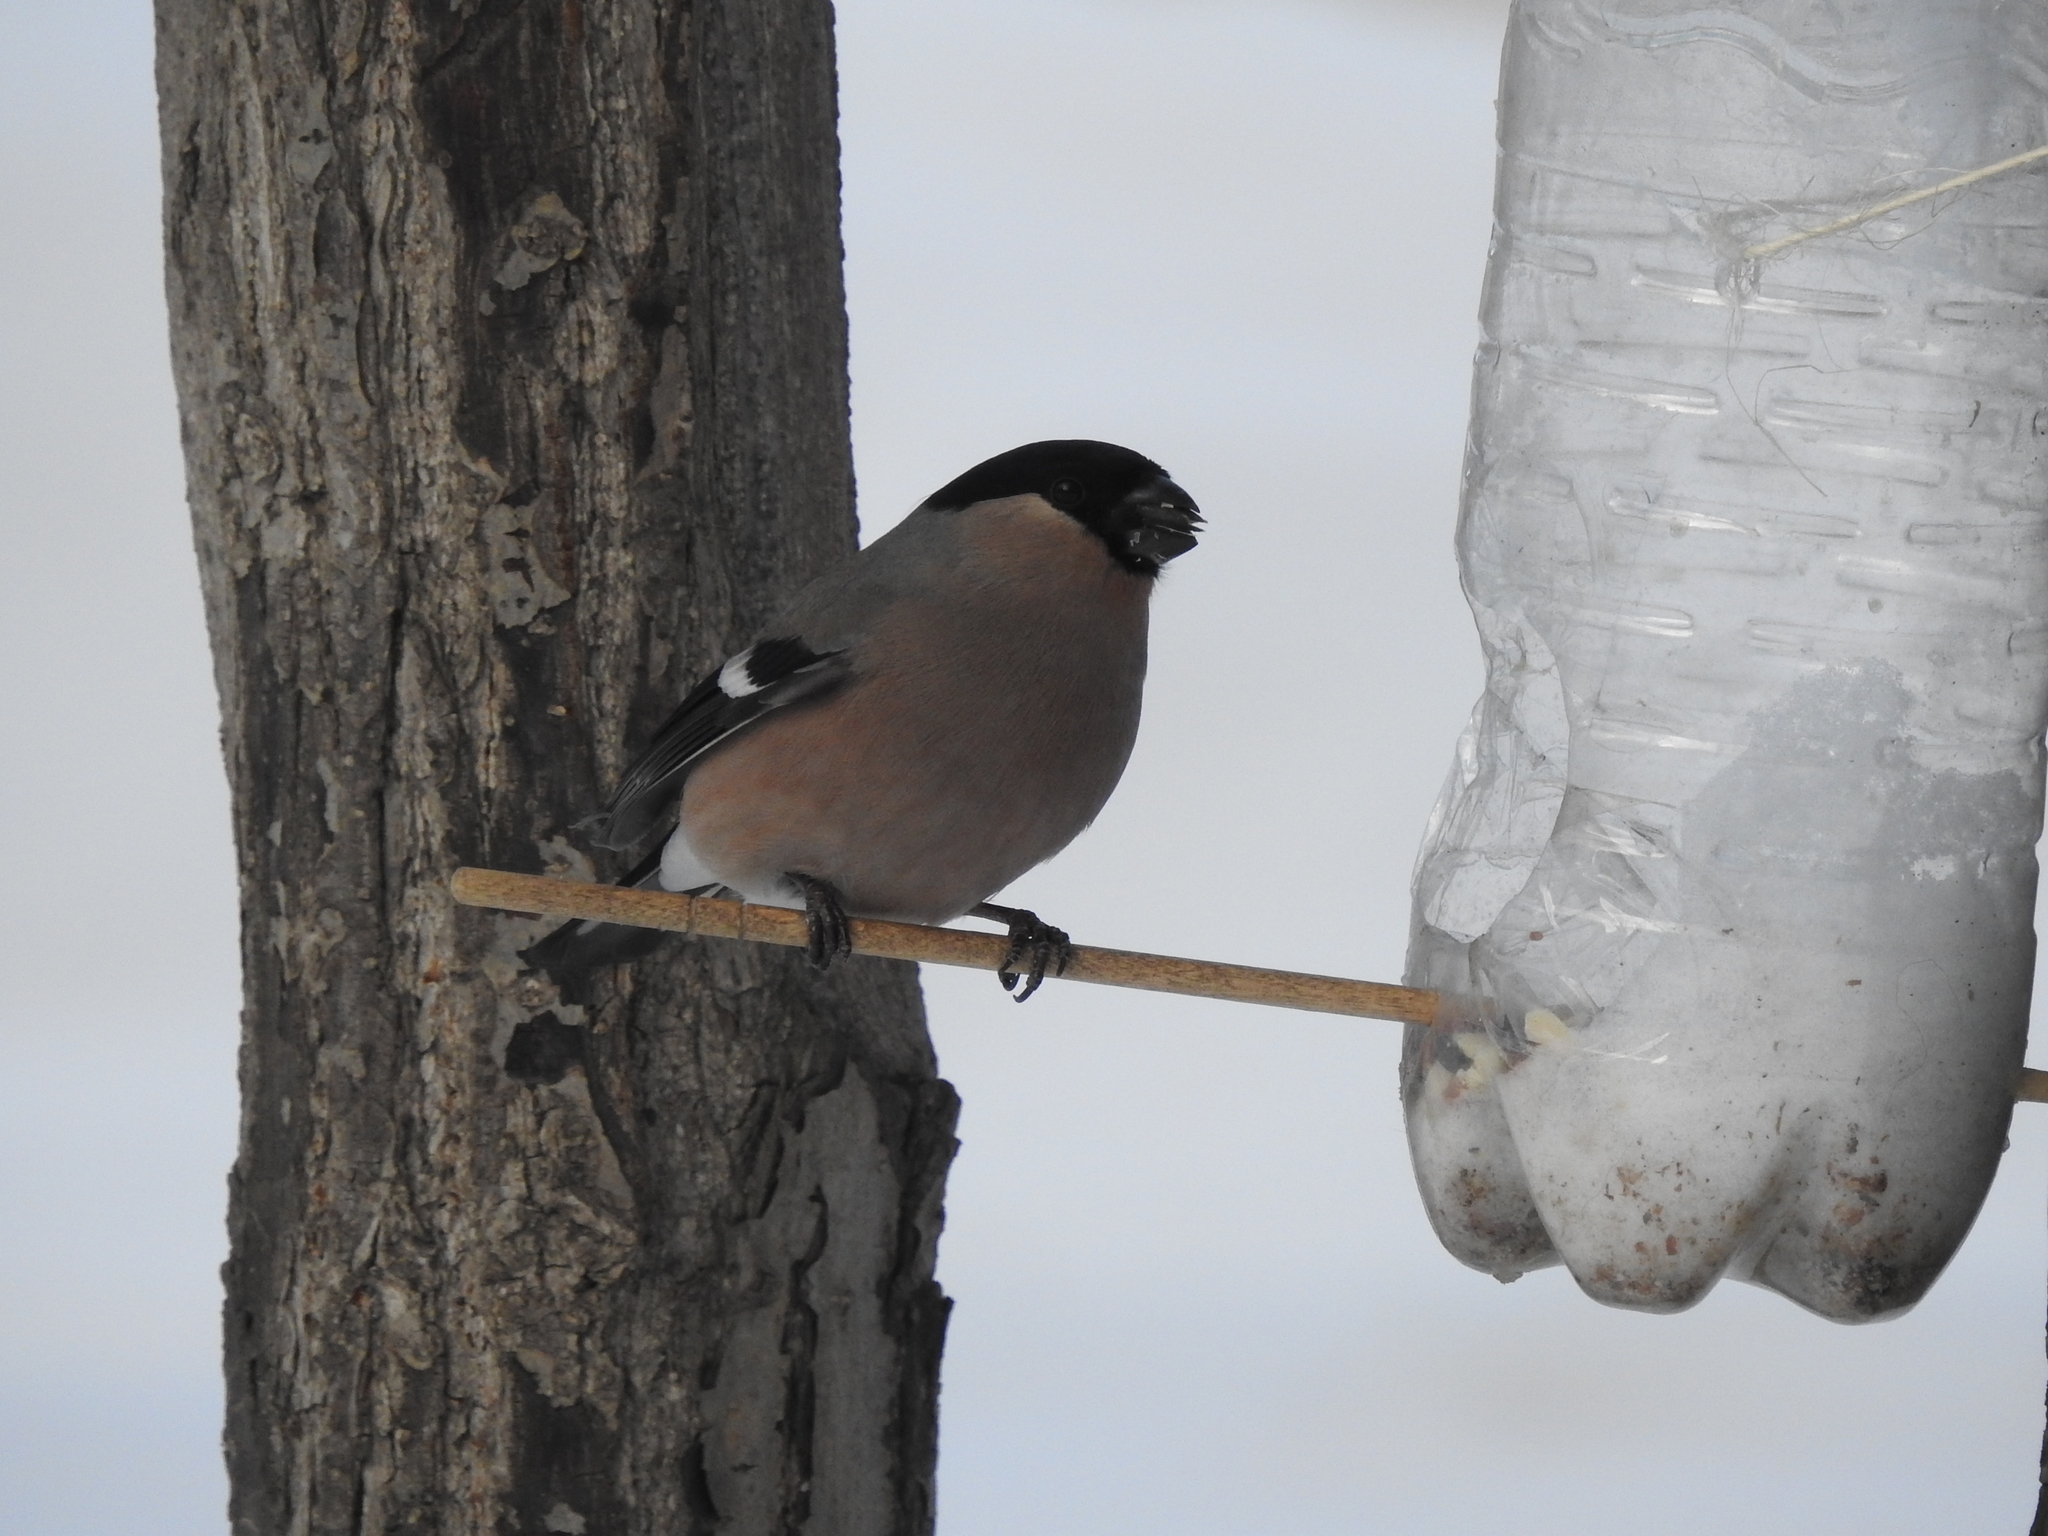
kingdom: Animalia
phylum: Chordata
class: Aves
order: Passeriformes
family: Fringillidae
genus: Pyrrhula
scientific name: Pyrrhula pyrrhula
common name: Eurasian bullfinch
